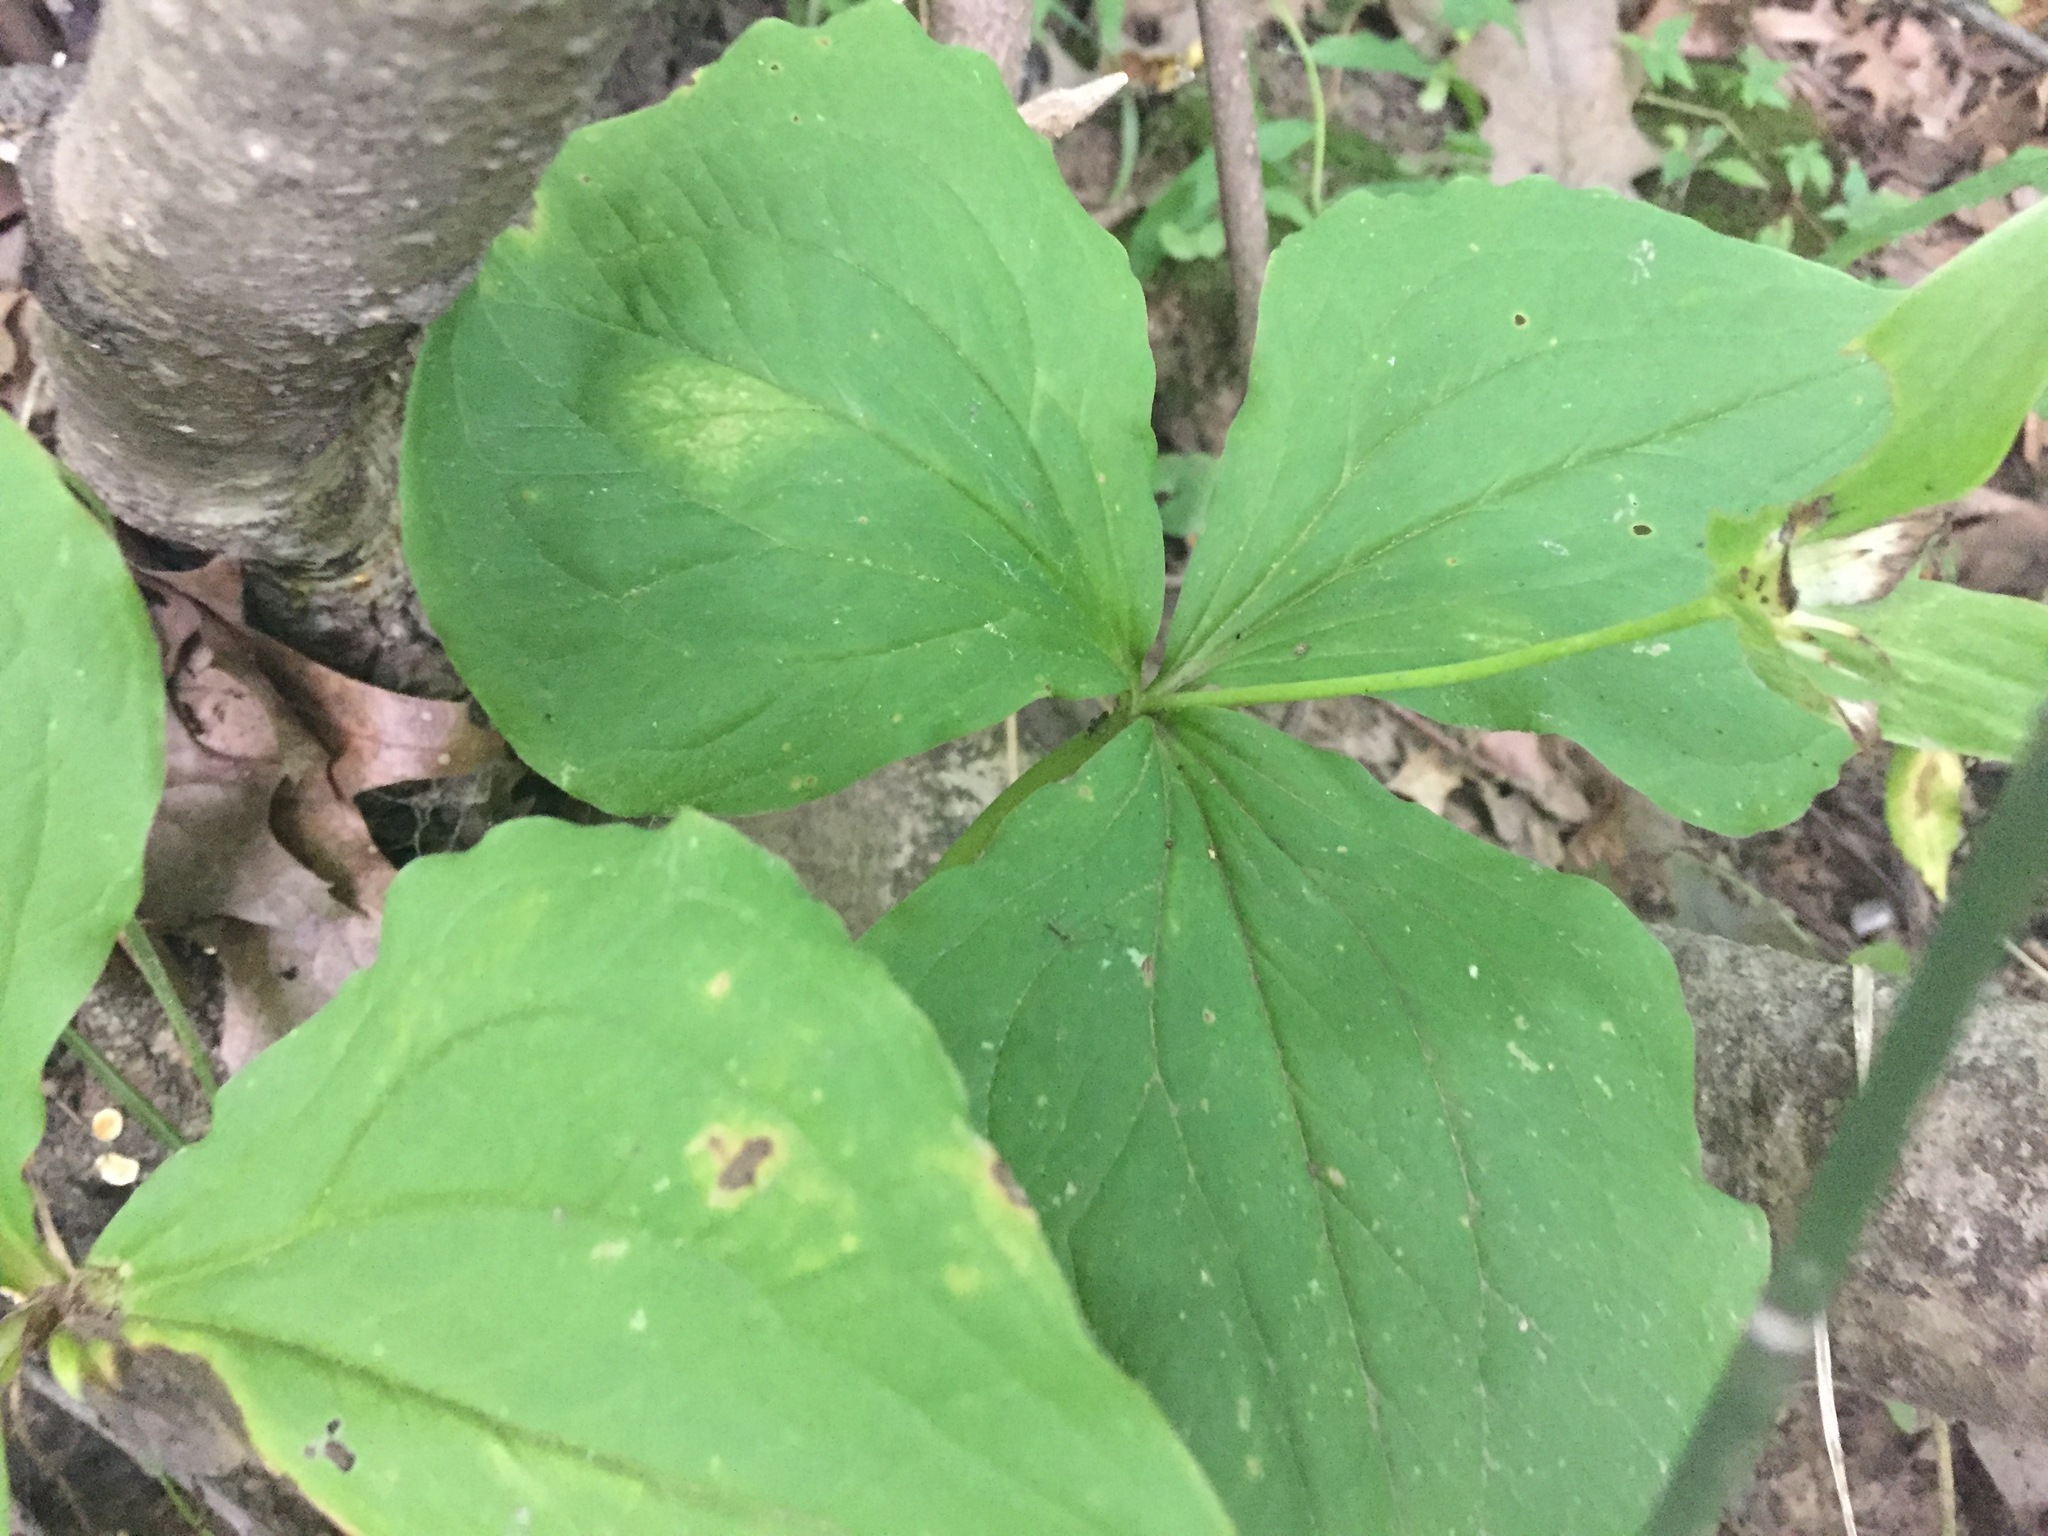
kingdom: Plantae
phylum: Tracheophyta
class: Liliopsida
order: Liliales
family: Melanthiaceae
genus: Trillium
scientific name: Trillium grandiflorum
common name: Great white trillium
